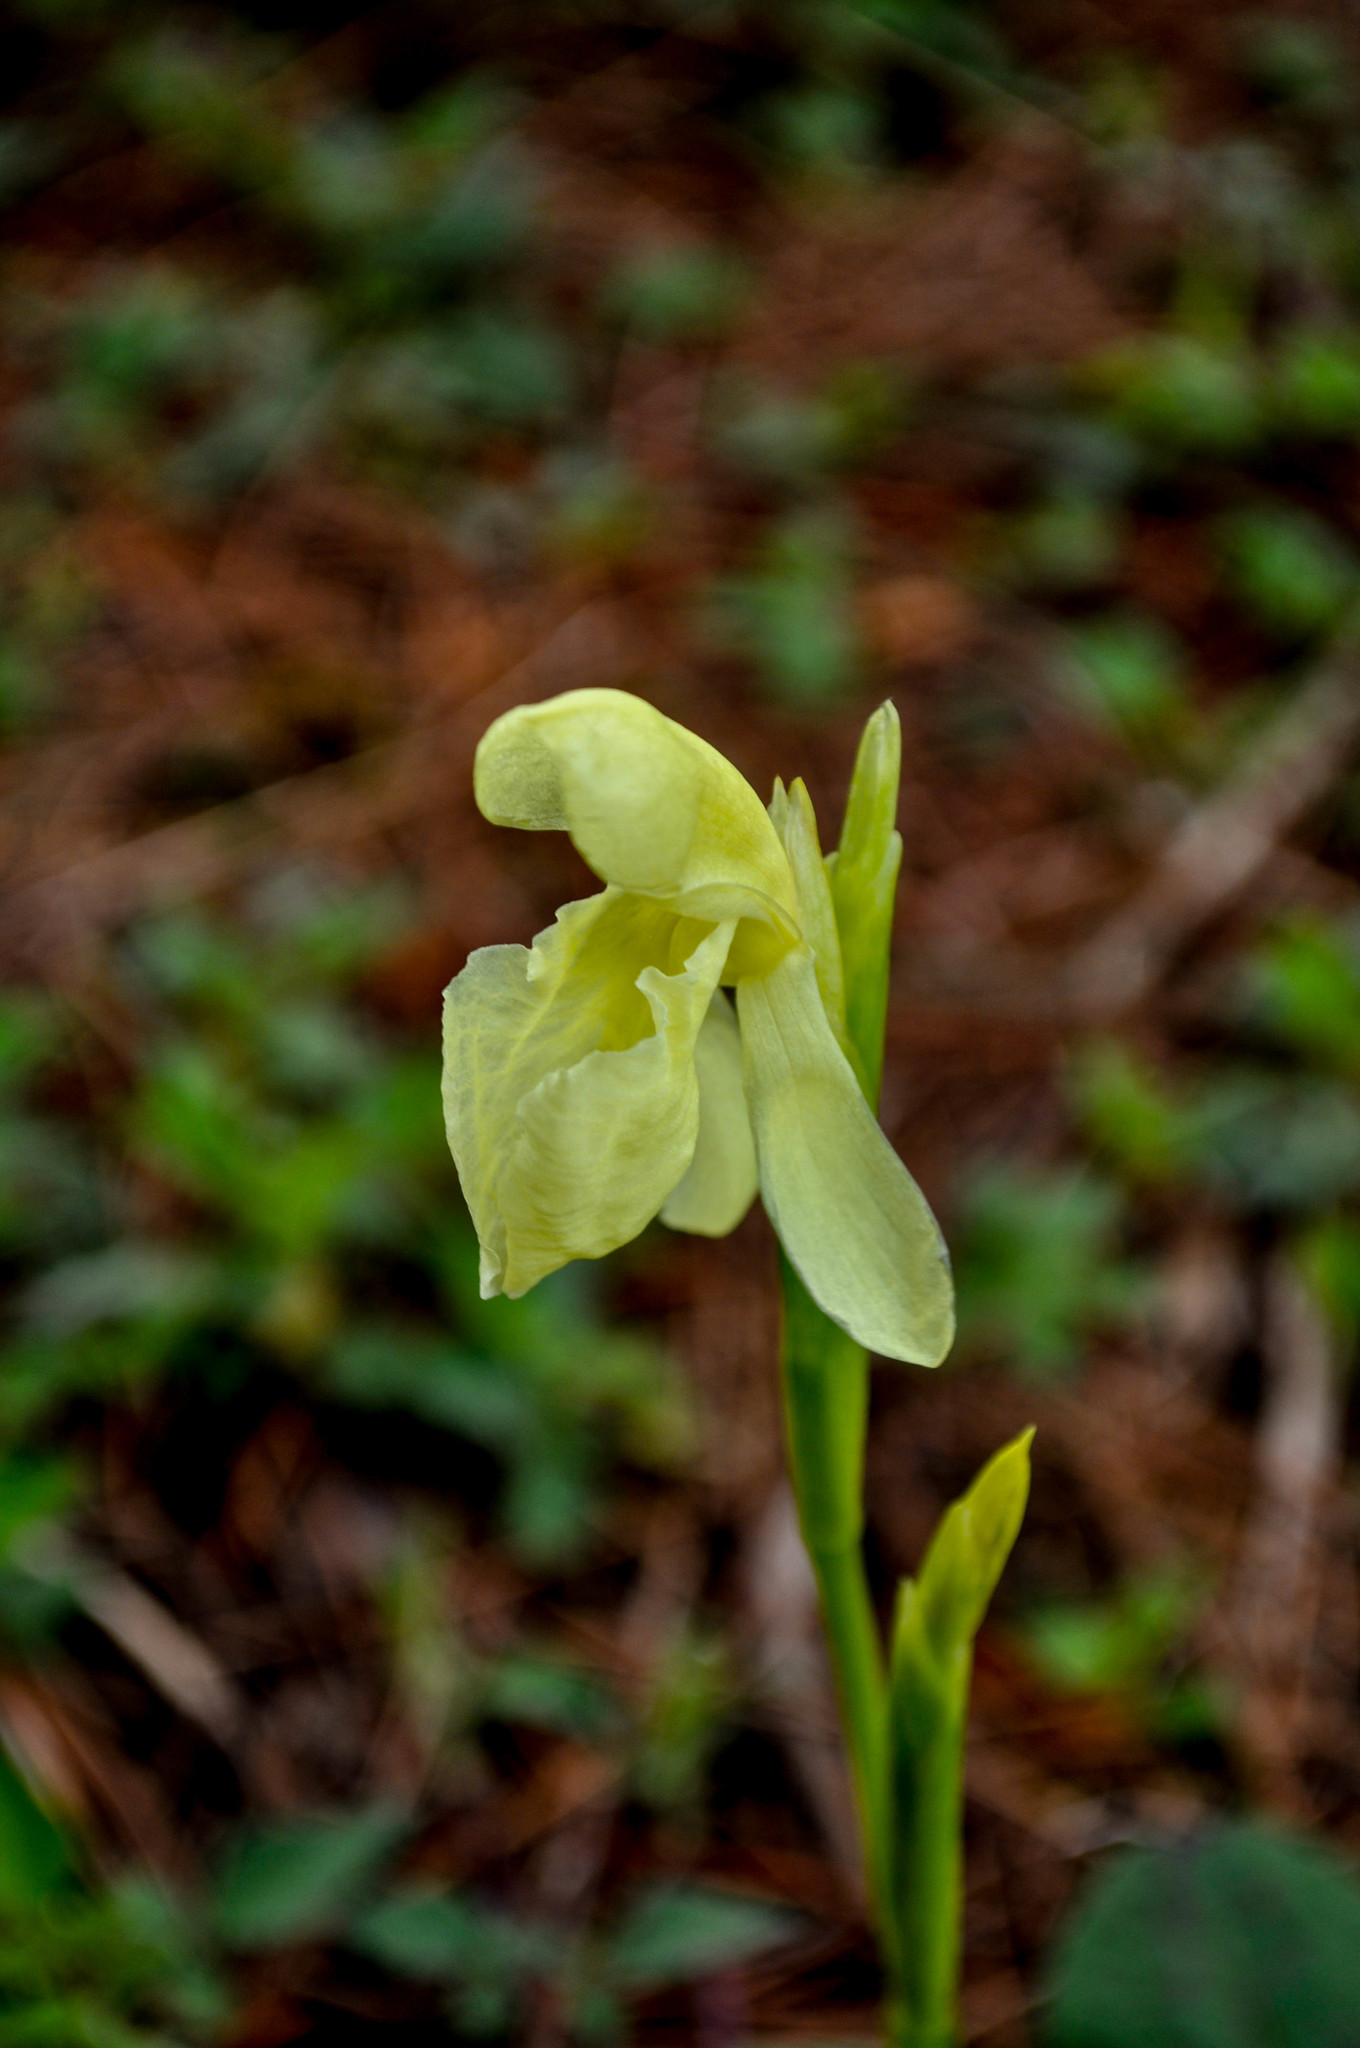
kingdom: Plantae
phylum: Tracheophyta
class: Liliopsida
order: Zingiberales
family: Zingiberaceae
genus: Roscoea
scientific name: Roscoea cautleyoides
